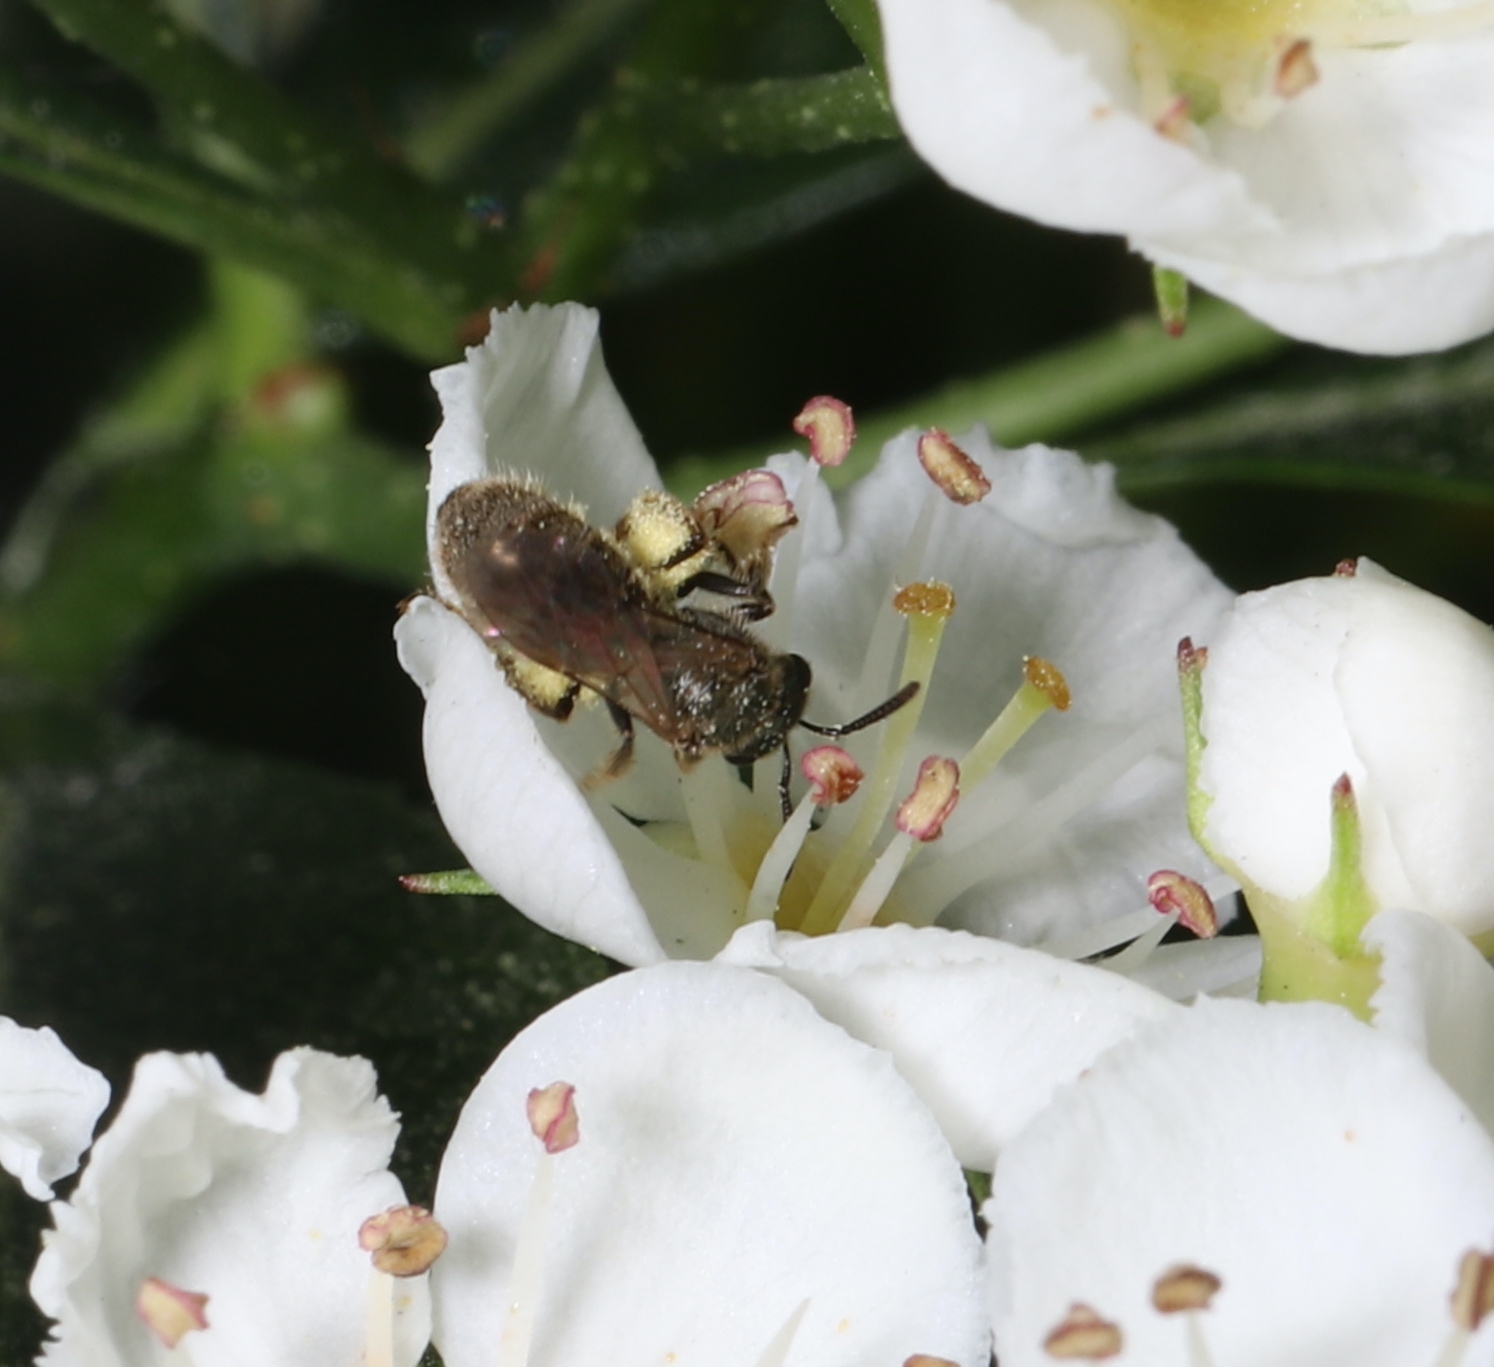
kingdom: Animalia
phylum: Arthropoda
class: Insecta
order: Hymenoptera
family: Halictidae
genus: Dialictus
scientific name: Dialictus
